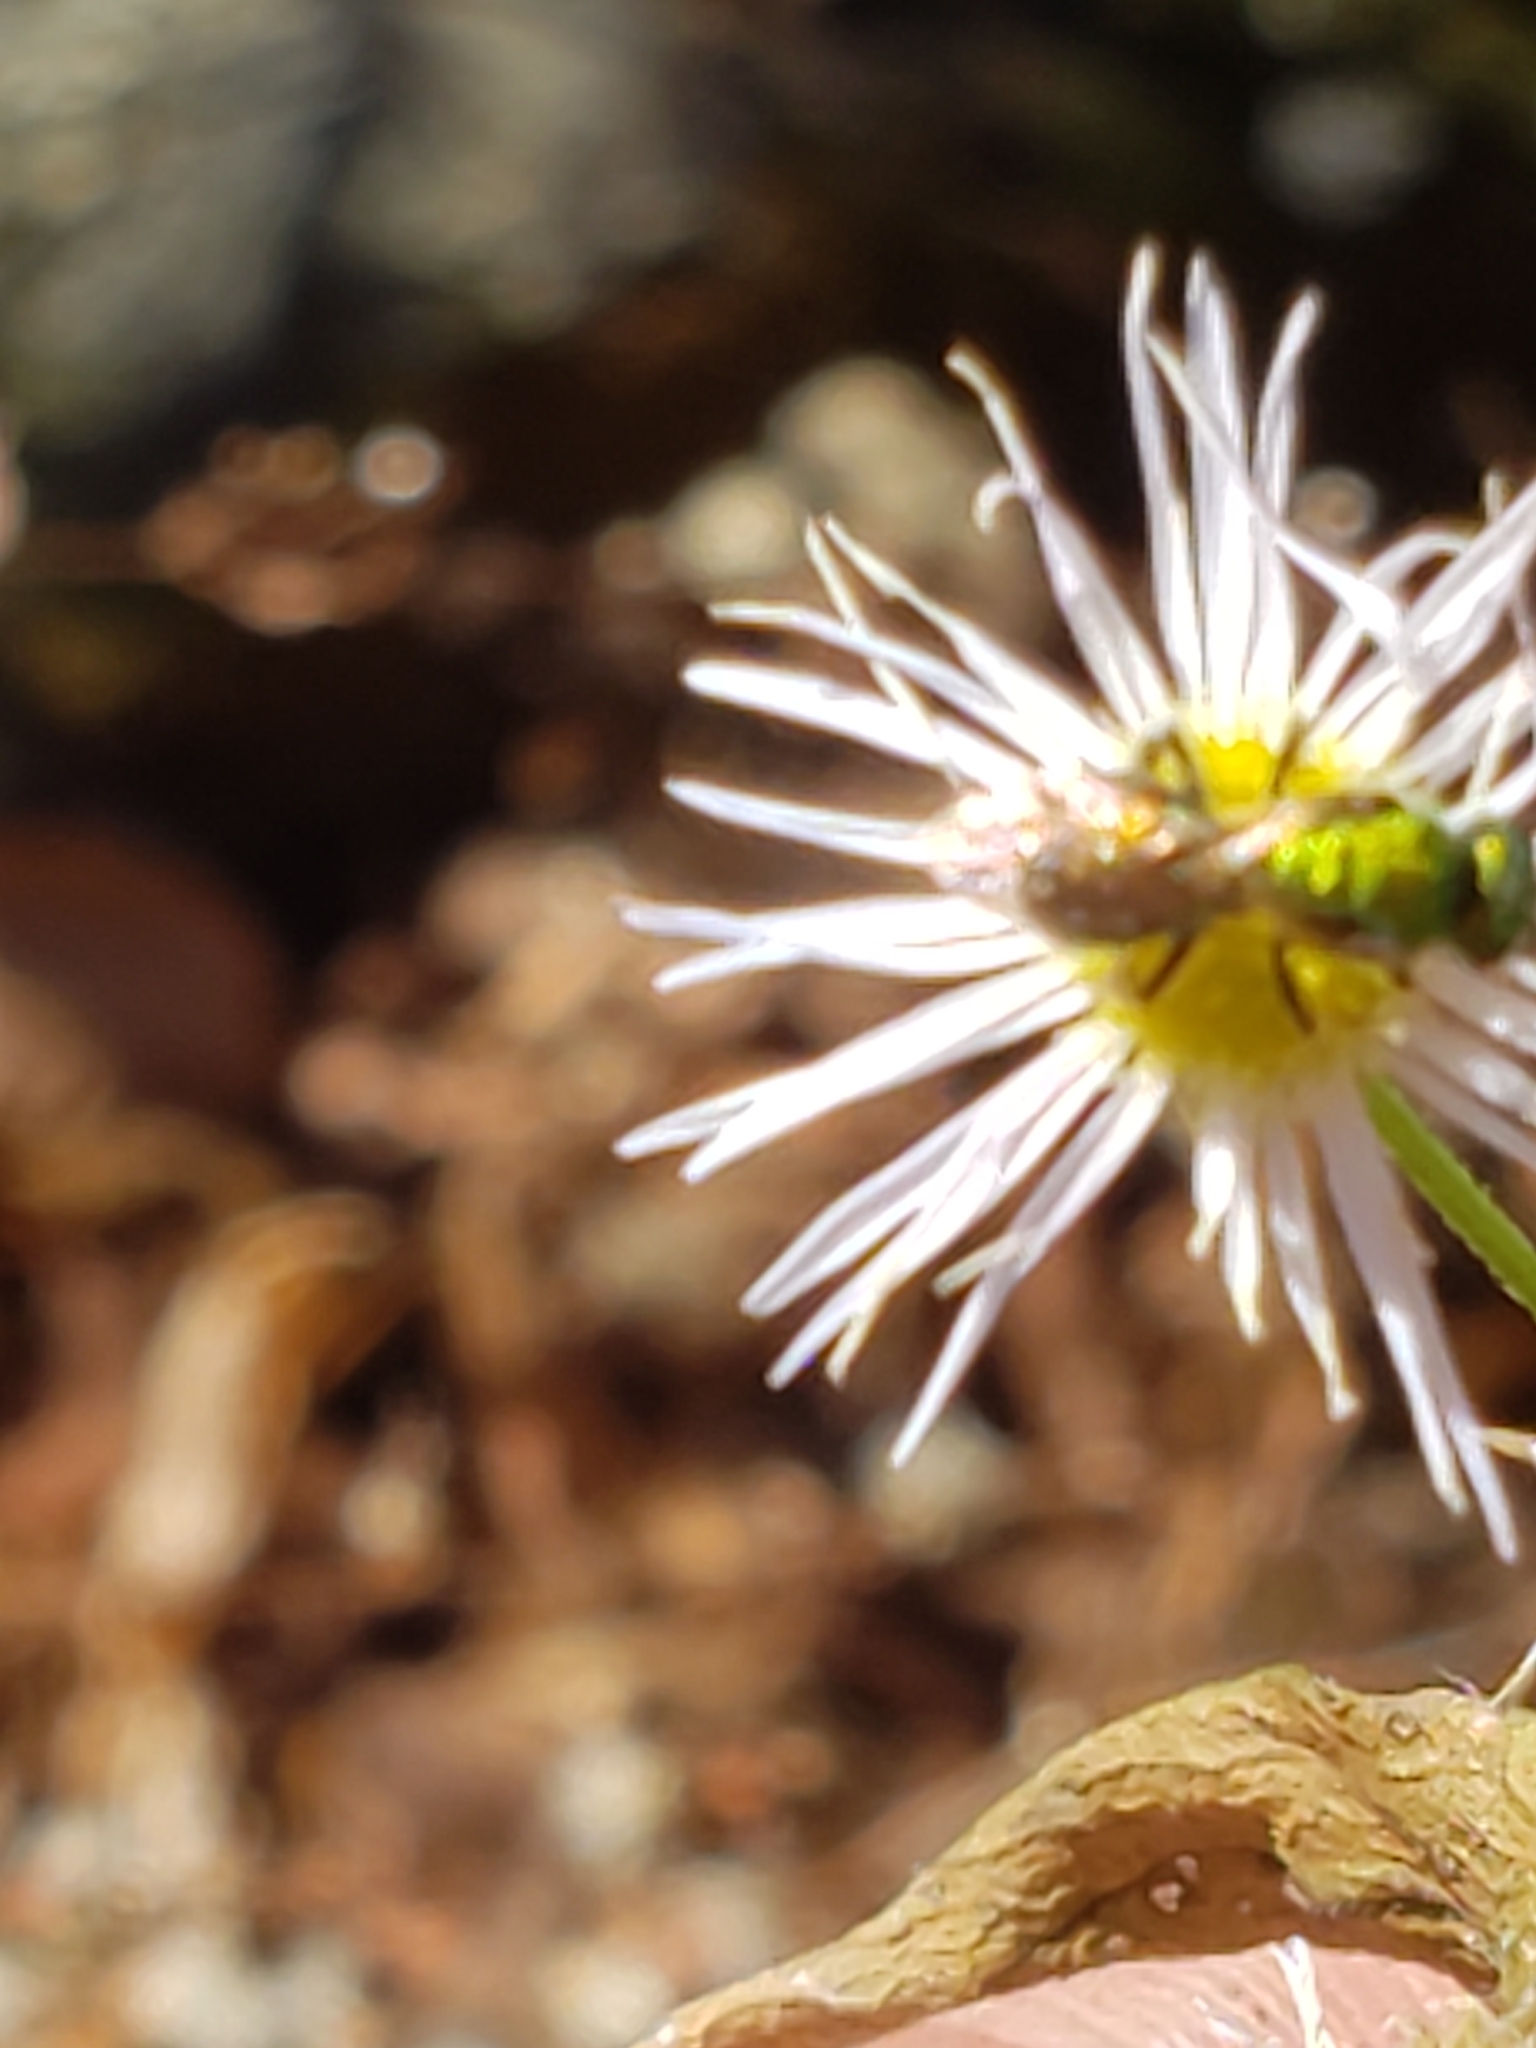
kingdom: Animalia
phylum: Arthropoda
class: Insecta
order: Hymenoptera
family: Halictidae
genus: Augochlora
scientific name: Augochlora pura
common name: Pure green sweat bee
